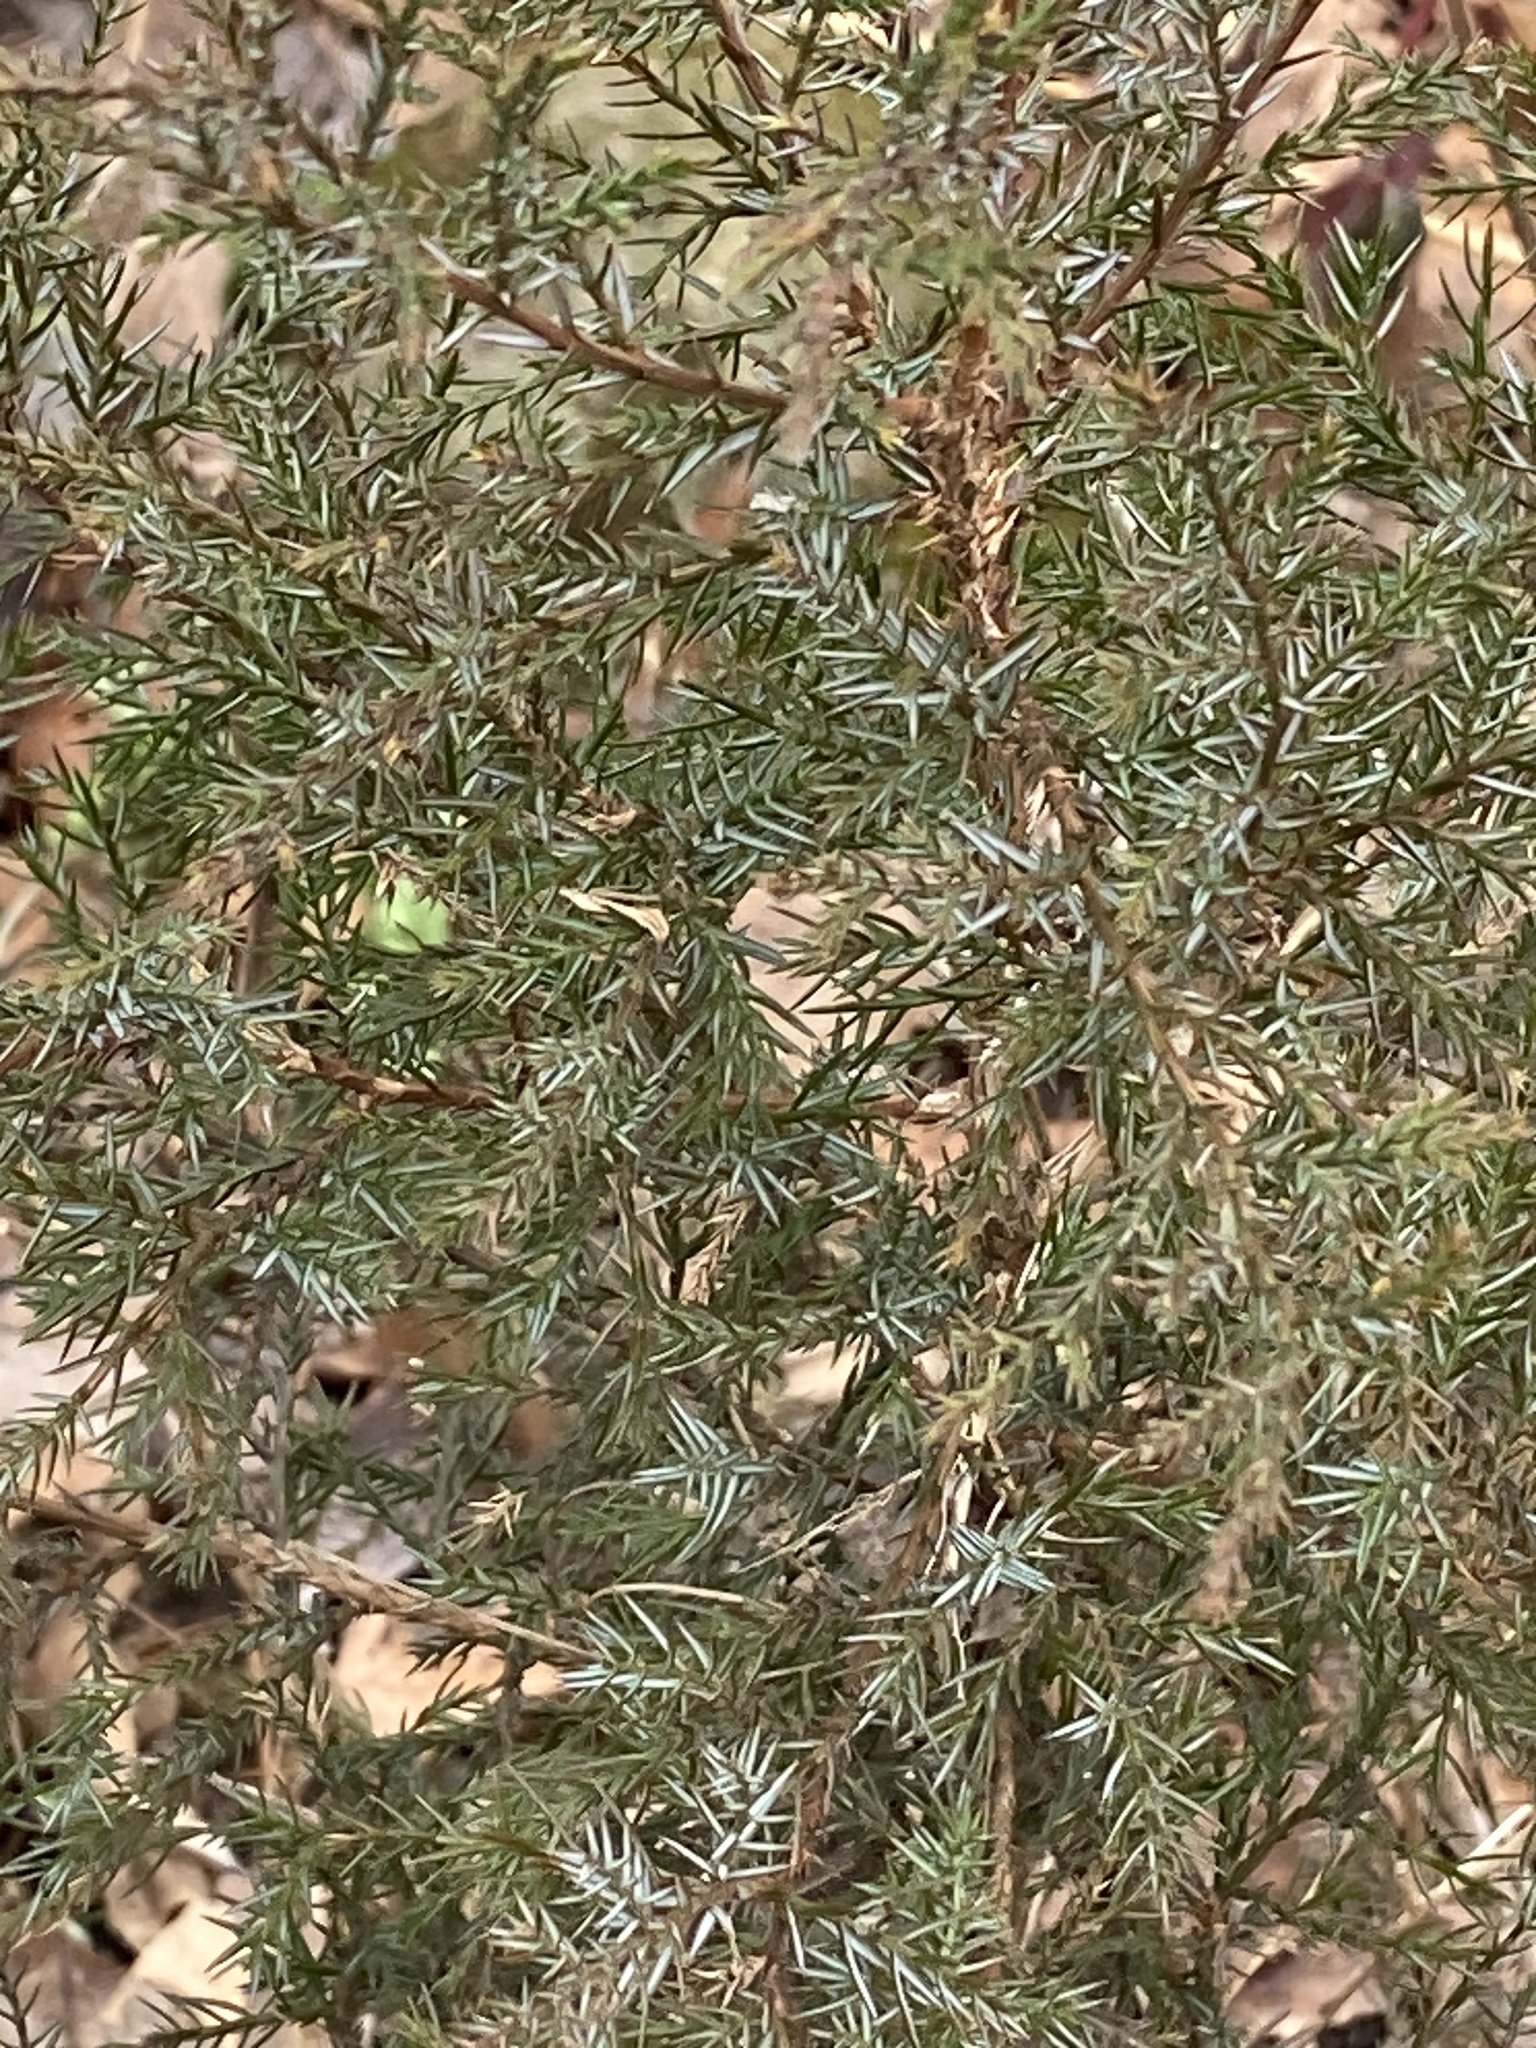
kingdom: Plantae
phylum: Tracheophyta
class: Pinopsida
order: Pinales
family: Cupressaceae
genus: Juniperus
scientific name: Juniperus virginiana
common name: Red juniper
